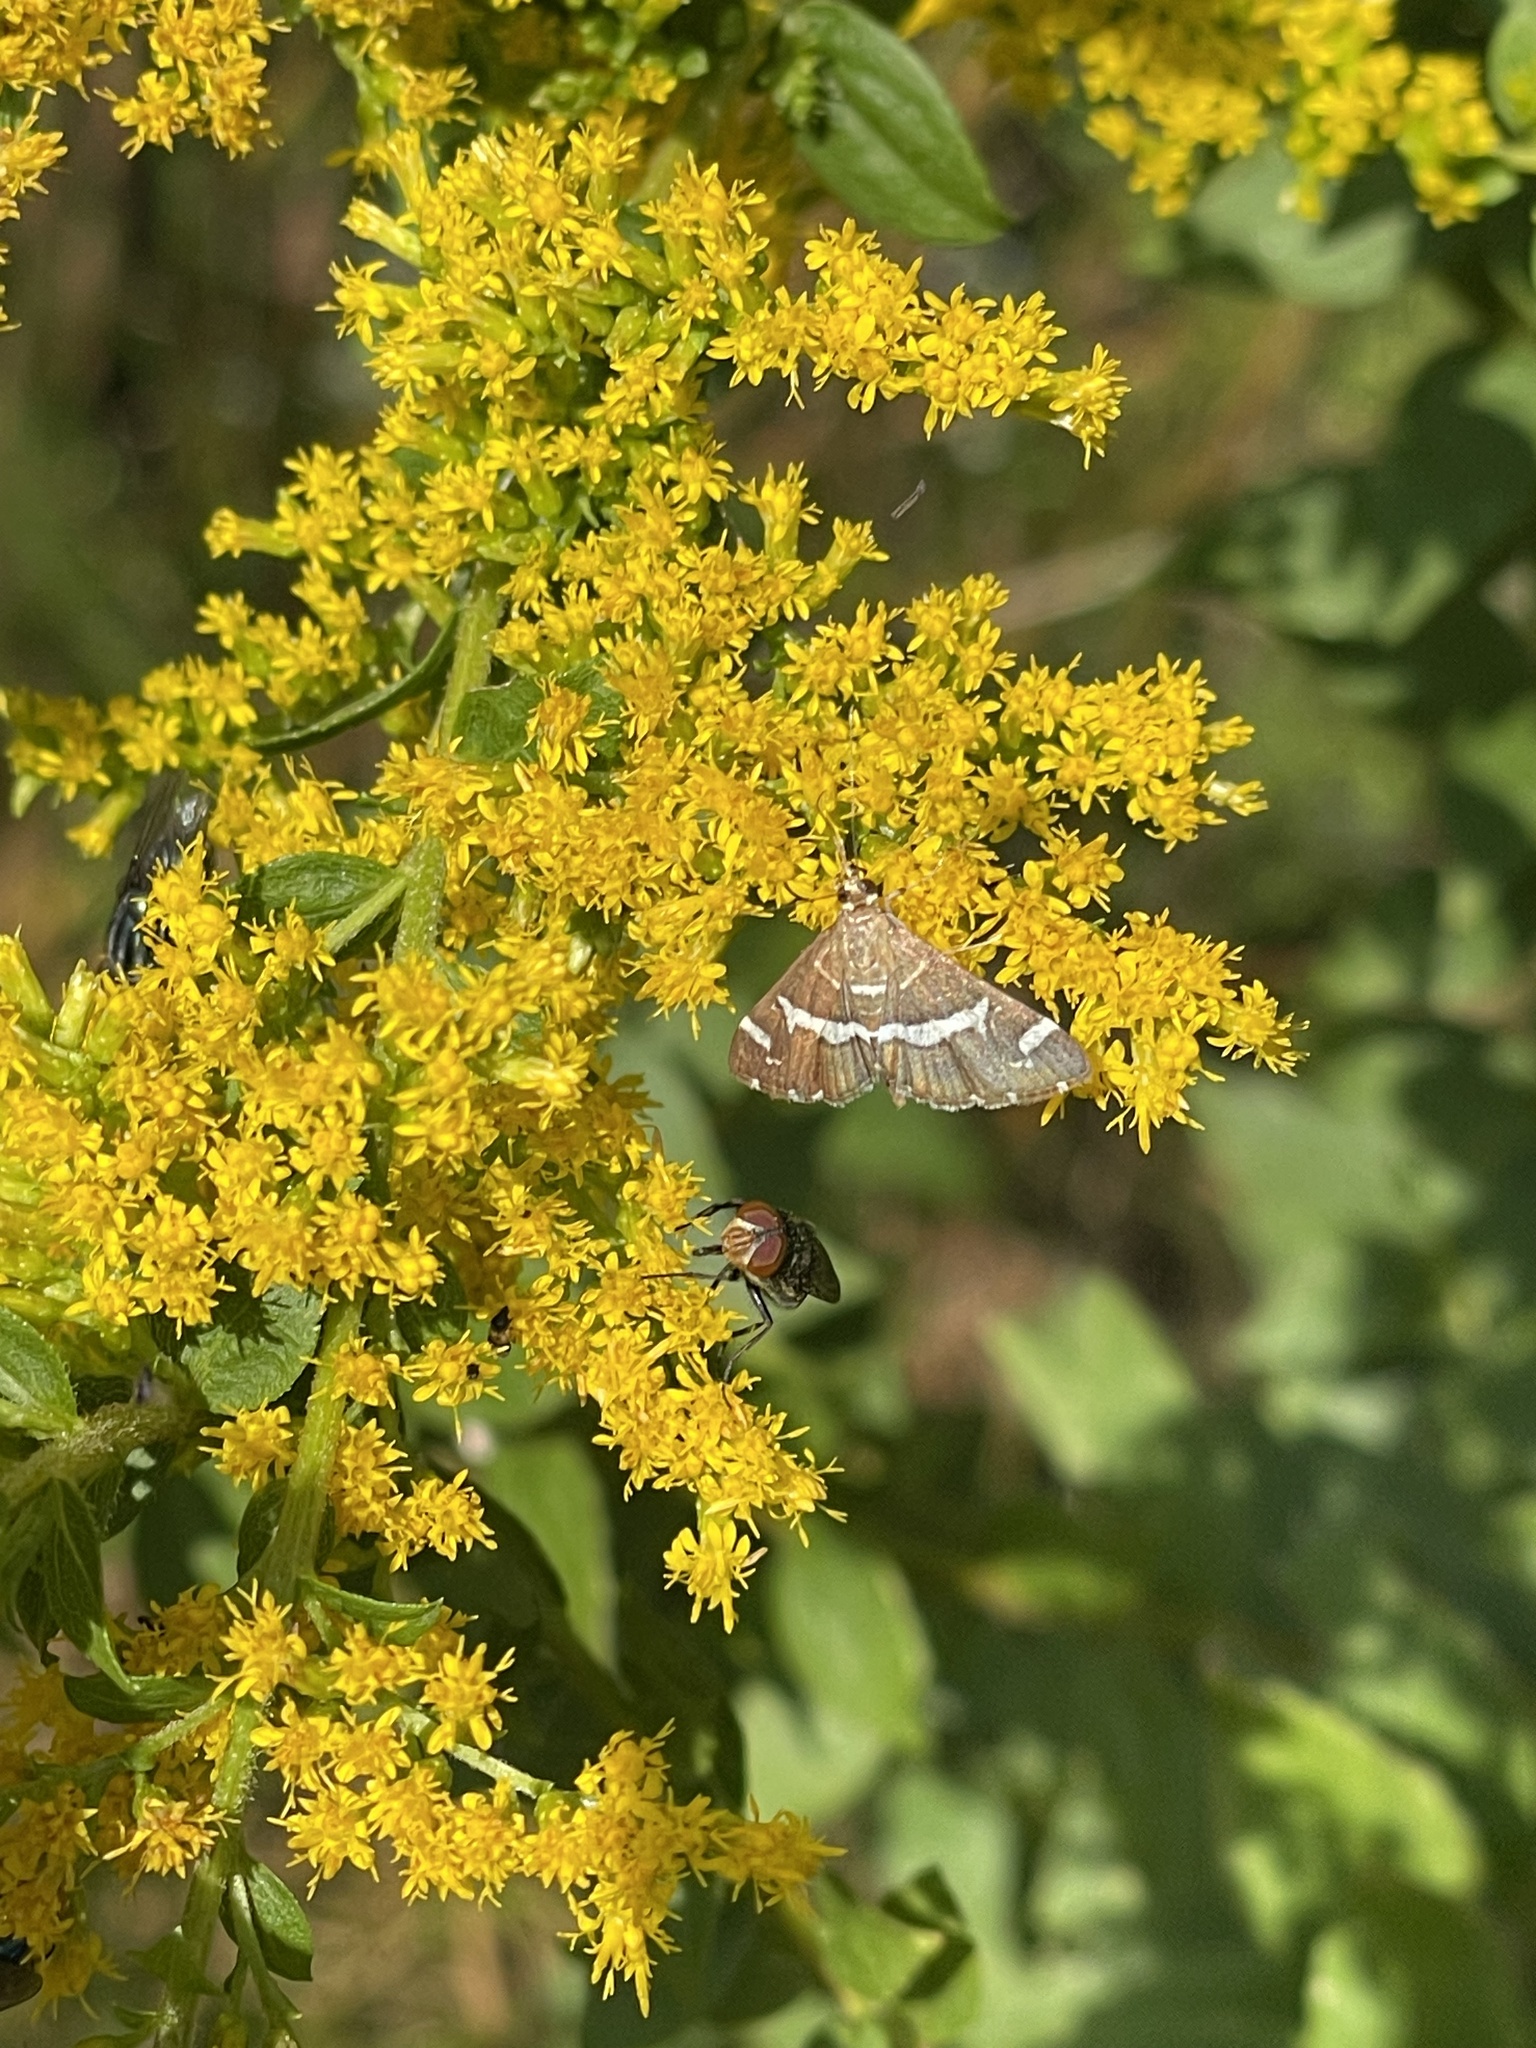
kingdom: Animalia
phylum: Arthropoda
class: Insecta
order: Lepidoptera
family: Crambidae
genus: Spoladea
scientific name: Spoladea recurvalis
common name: Beet webworm moth
